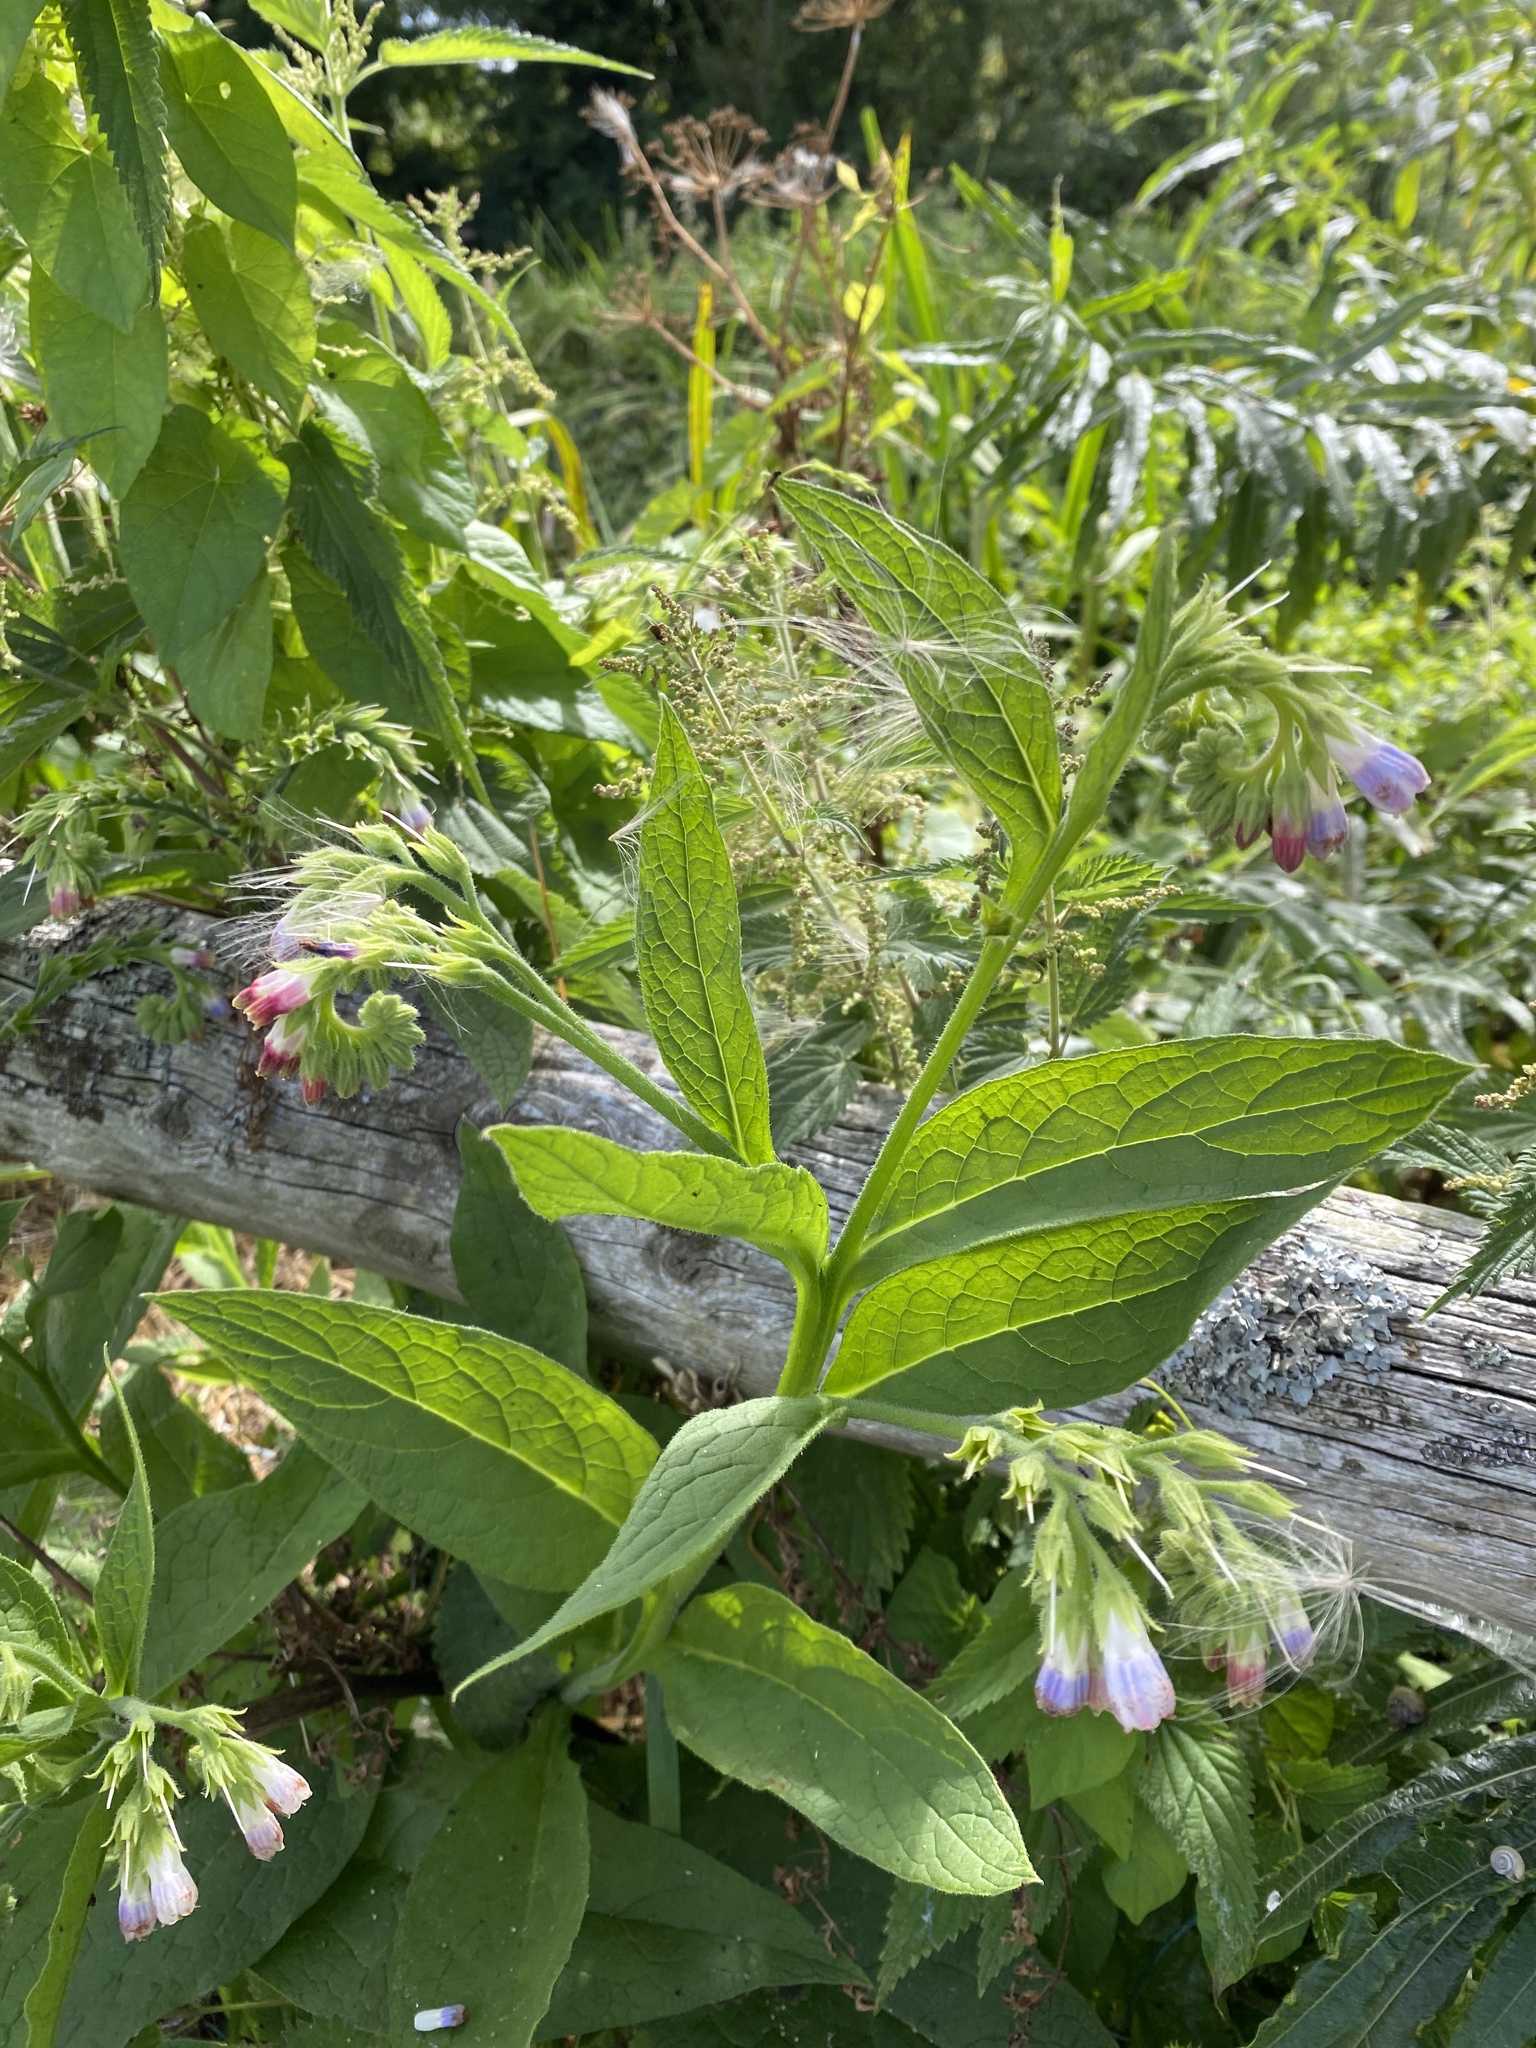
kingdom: Plantae
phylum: Tracheophyta
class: Magnoliopsida
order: Boraginales
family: Boraginaceae
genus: Symphytum
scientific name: Symphytum officinale
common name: Common comfrey
